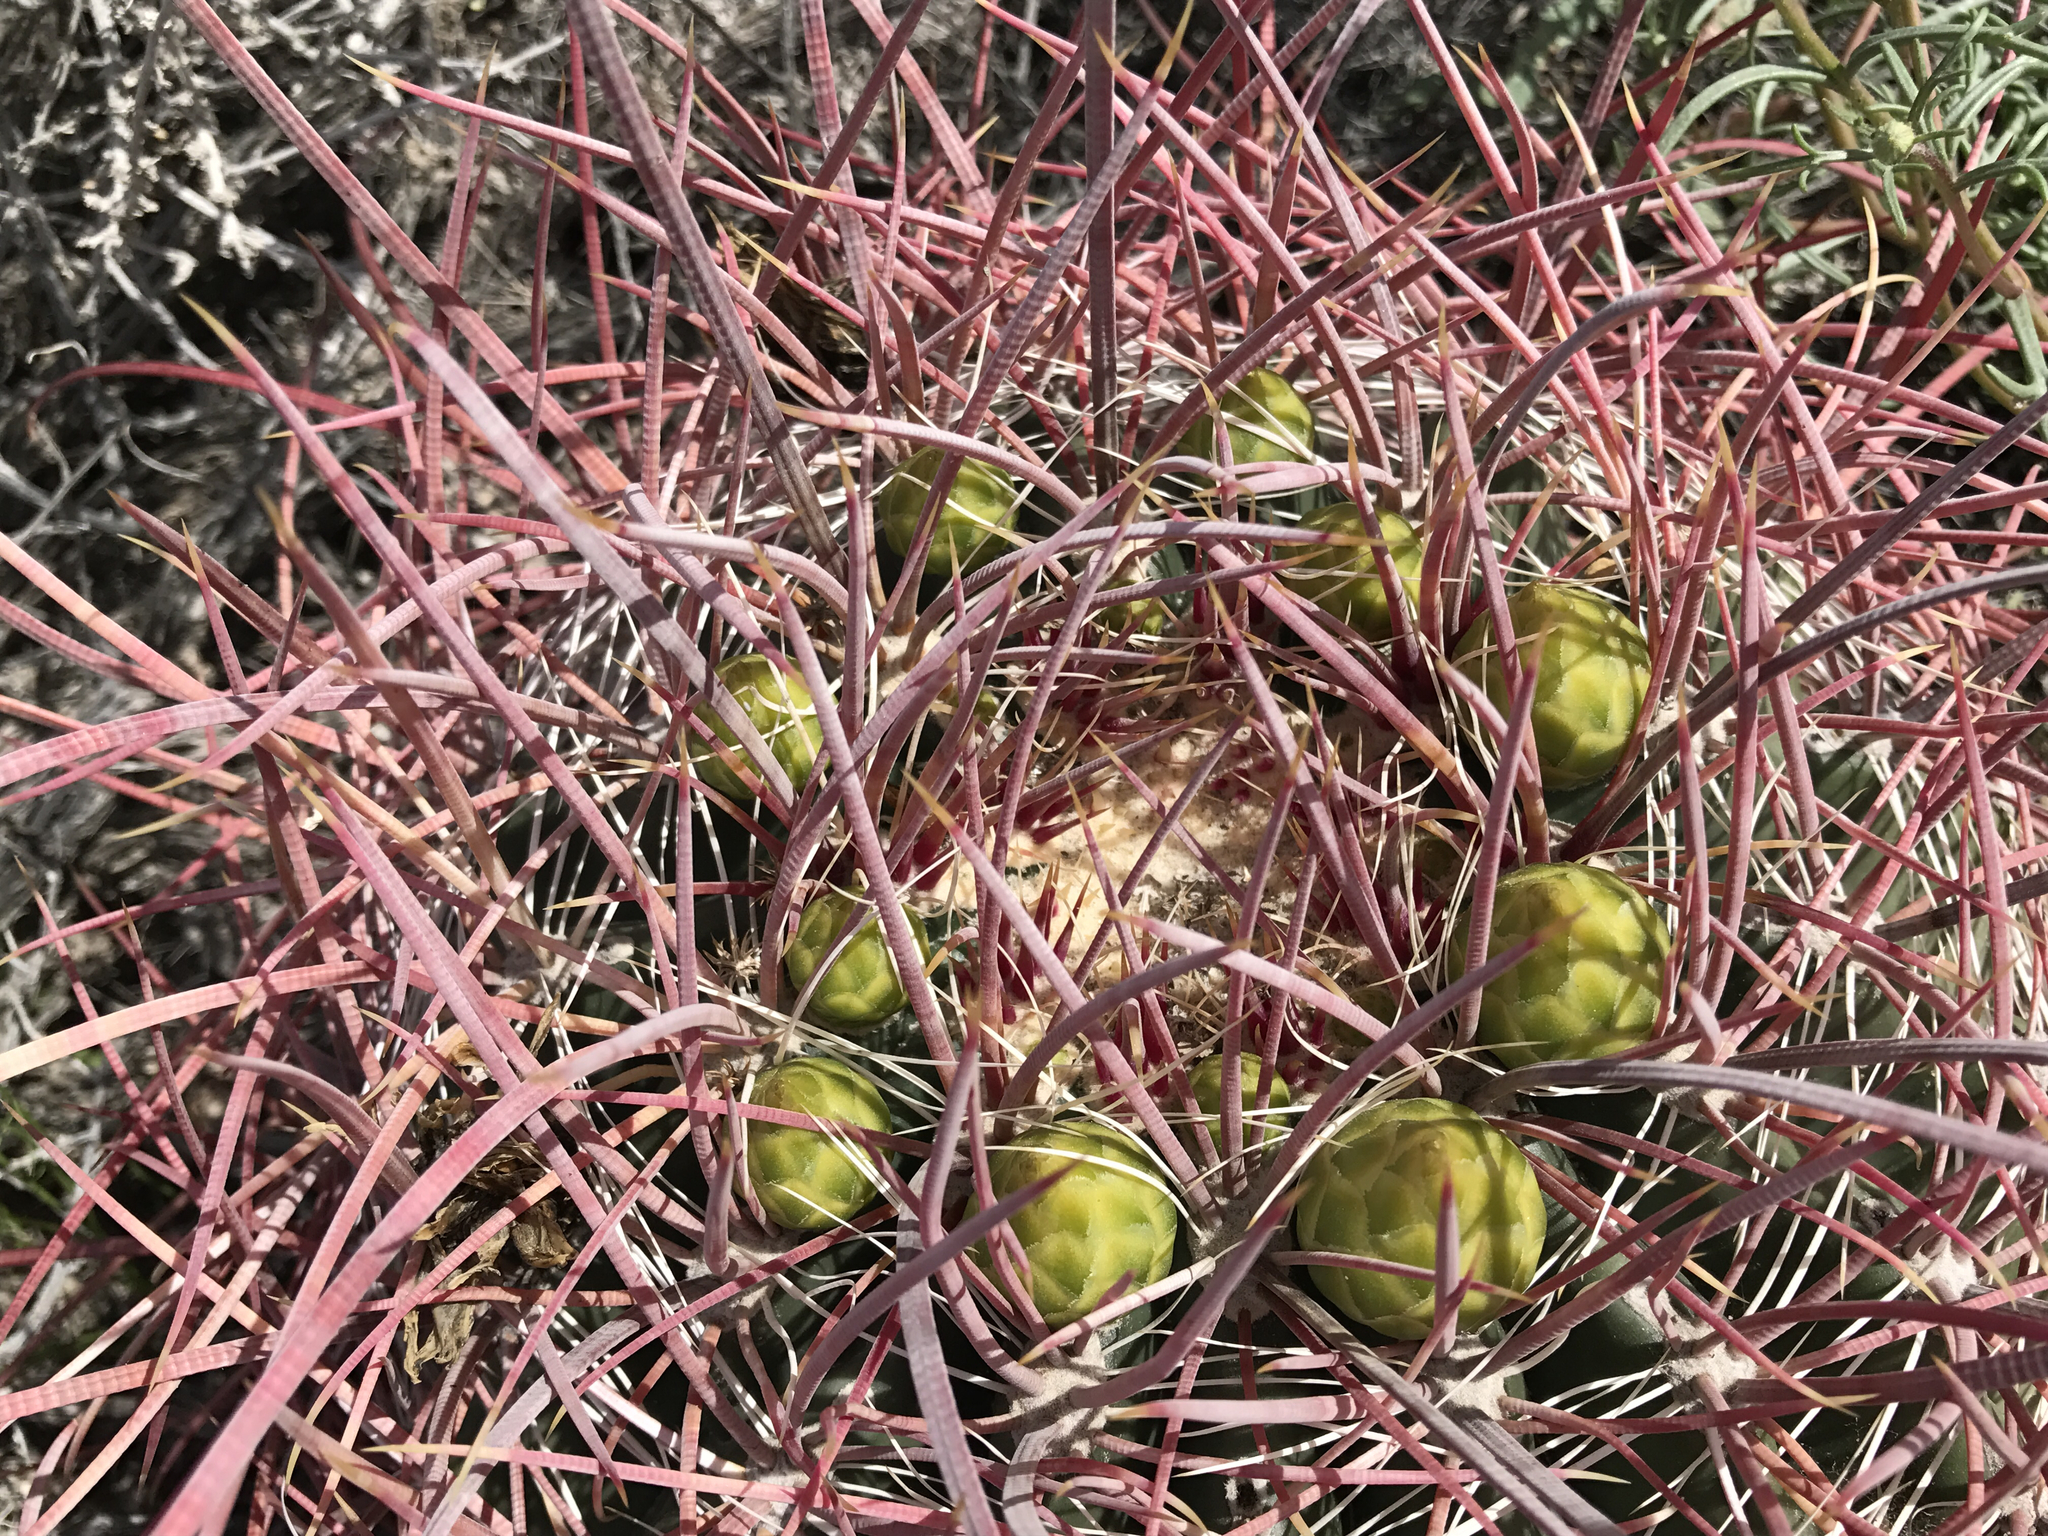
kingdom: Plantae
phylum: Tracheophyta
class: Magnoliopsida
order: Caryophyllales
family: Cactaceae
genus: Ferocactus
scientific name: Ferocactus cylindraceus
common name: California barrel cactus
